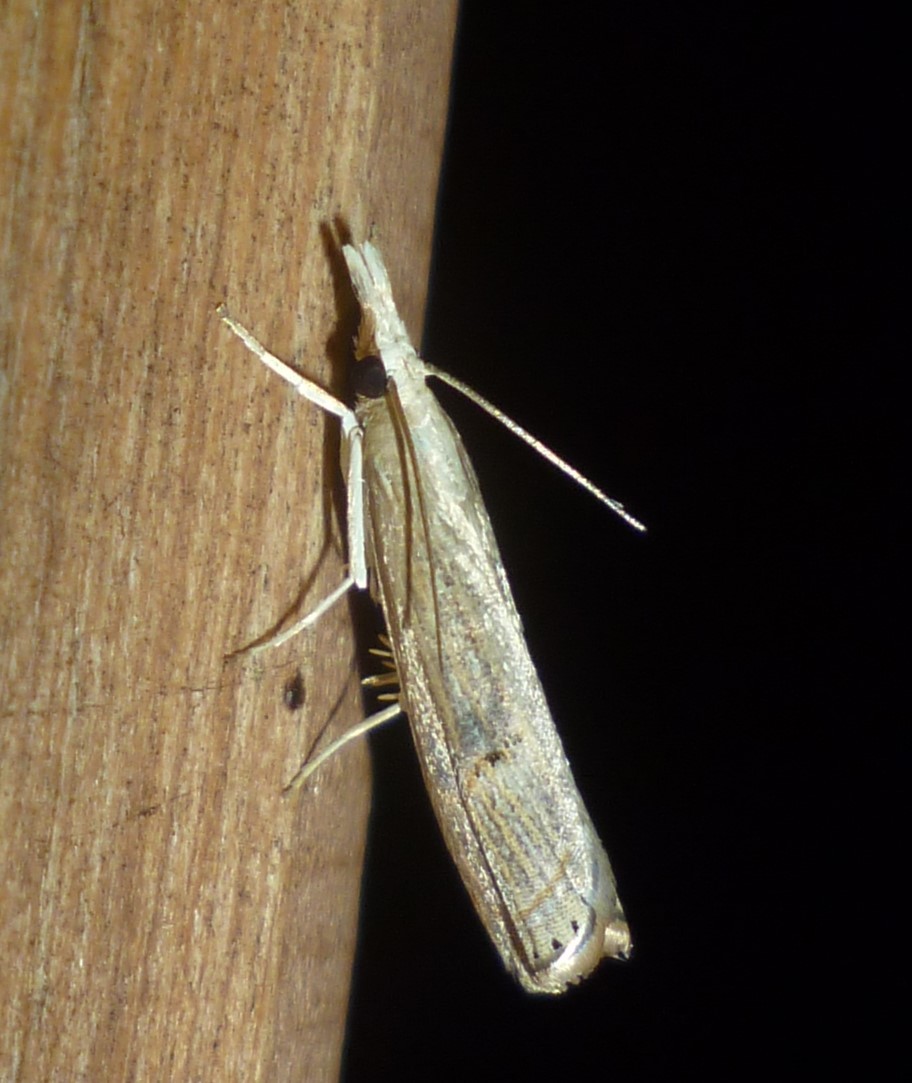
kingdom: Animalia
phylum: Arthropoda
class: Insecta
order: Lepidoptera
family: Crambidae
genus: Parapediasia
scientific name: Parapediasia teterellus
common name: Bluegrass webworm moth
